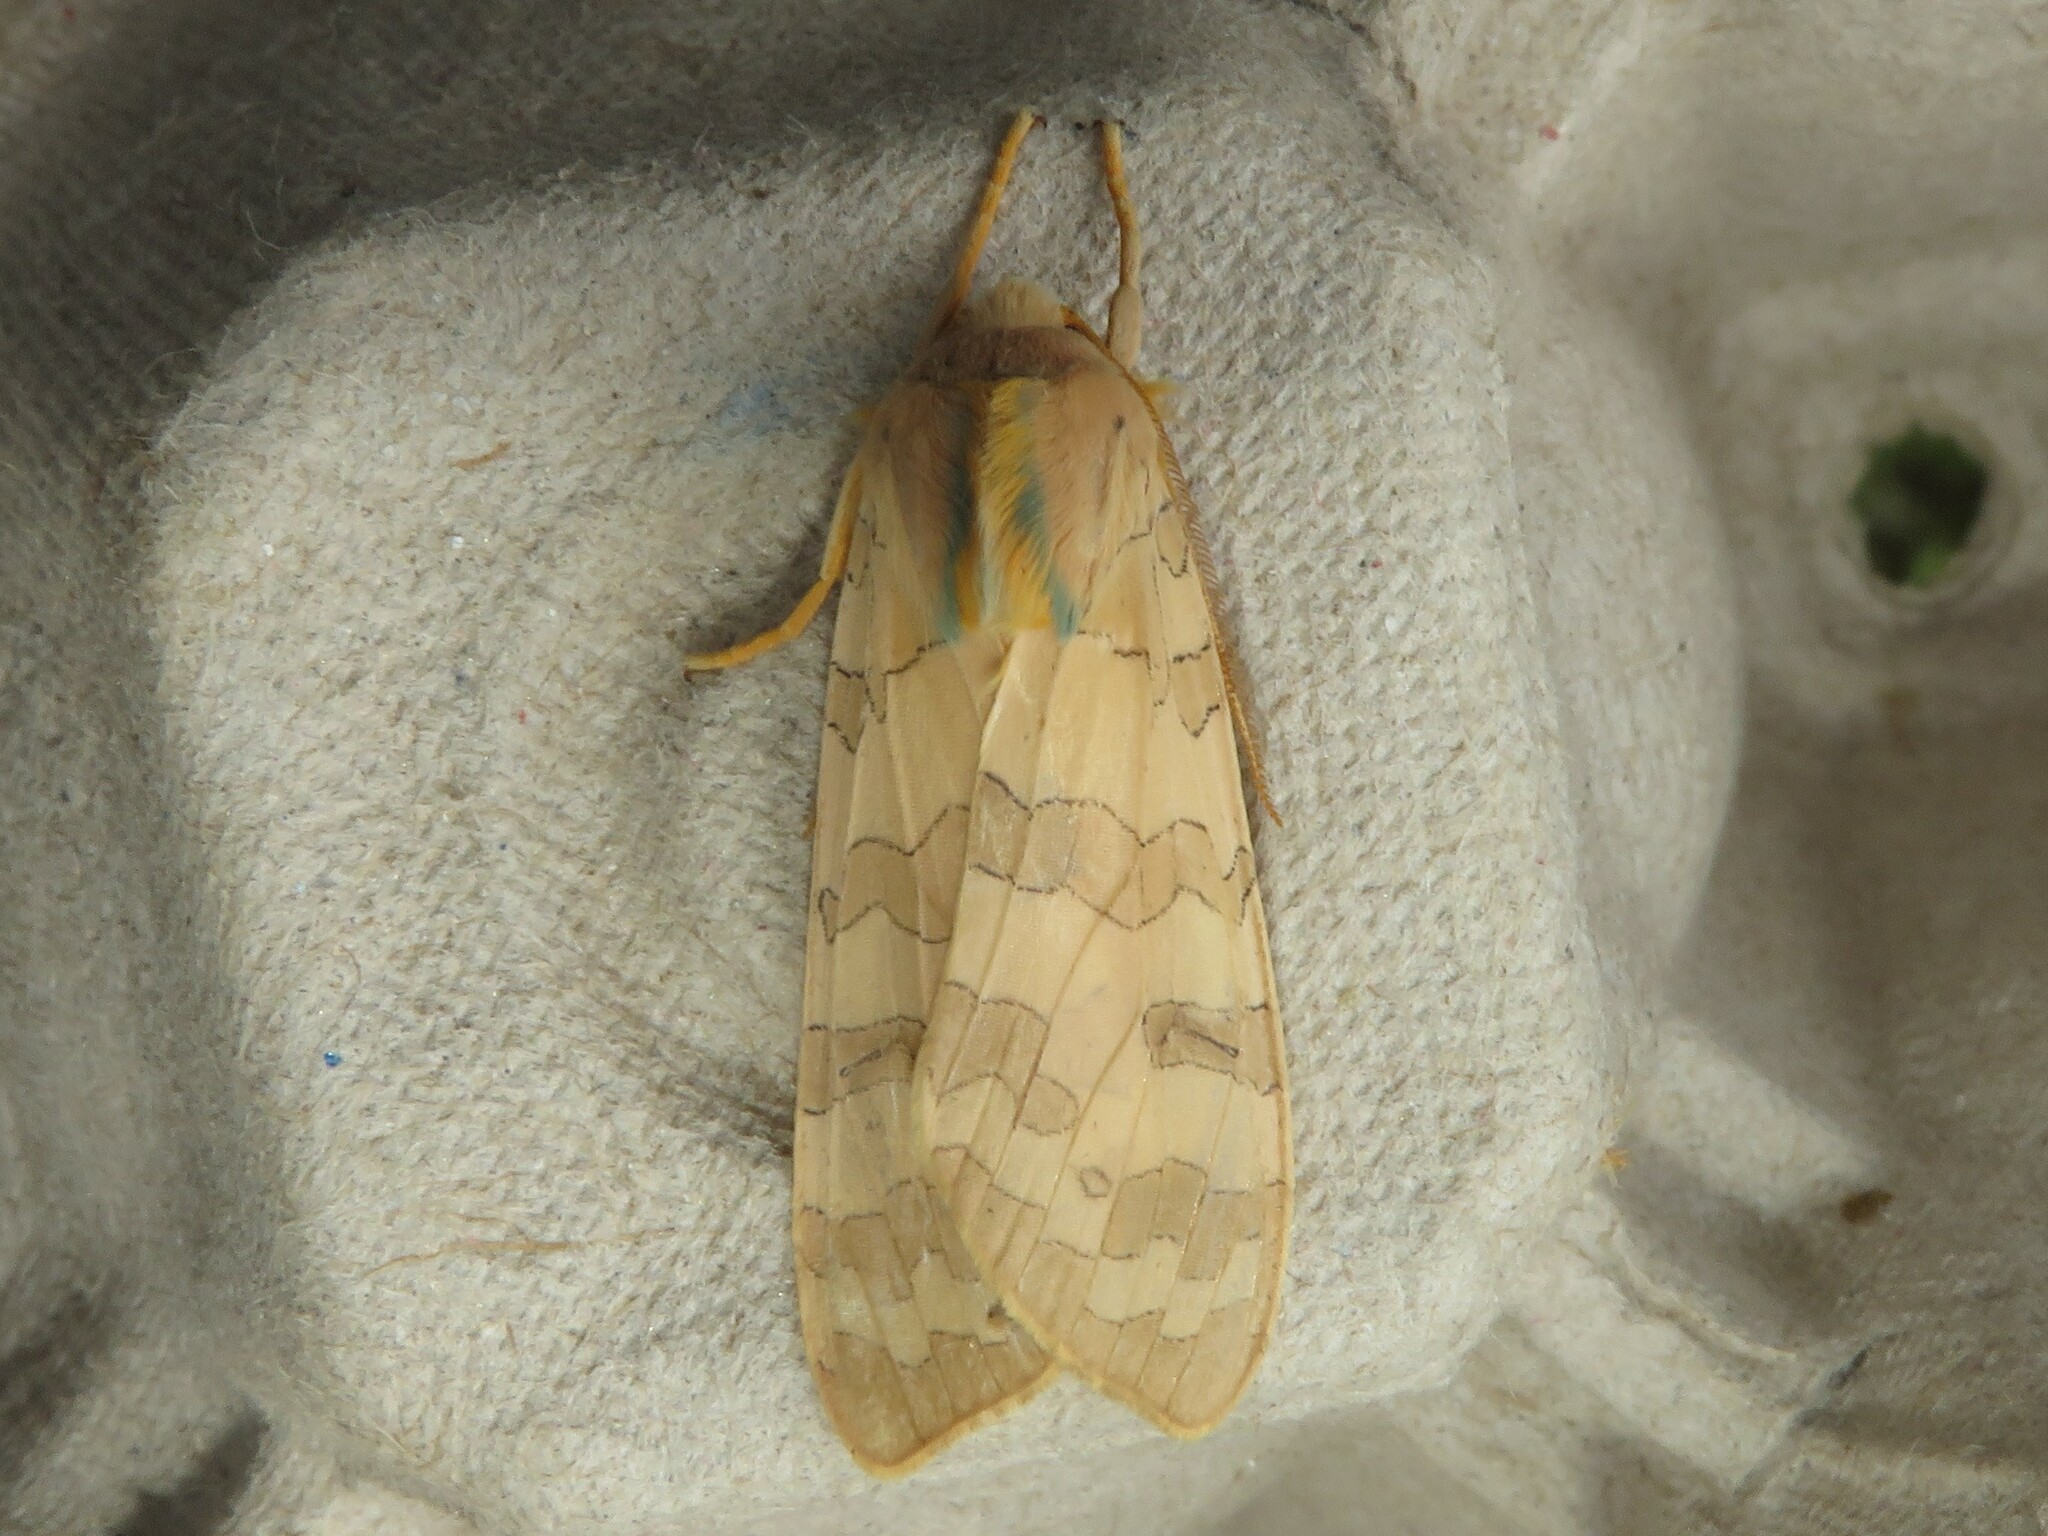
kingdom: Animalia
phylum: Arthropoda
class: Insecta
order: Lepidoptera
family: Erebidae
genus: Halysidota
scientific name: Halysidota tessellaris
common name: Banded tussock moth
